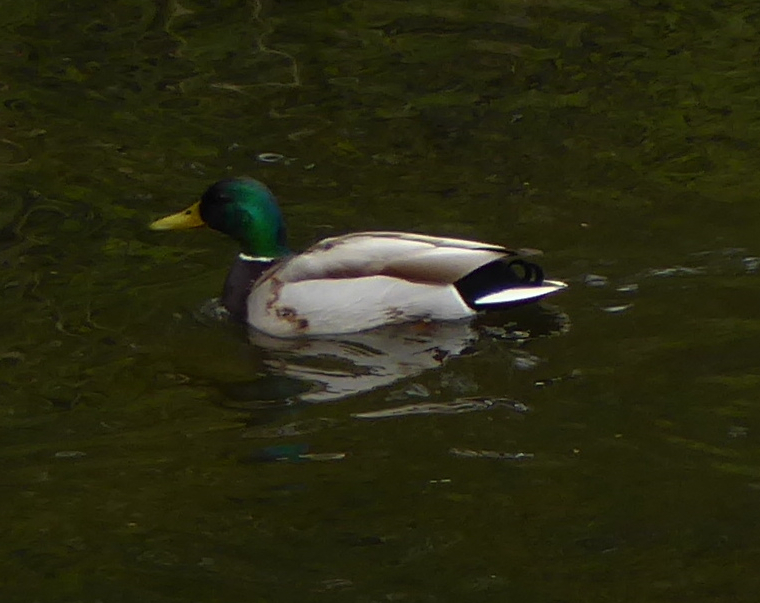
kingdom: Animalia
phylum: Chordata
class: Aves
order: Anseriformes
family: Anatidae
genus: Anas
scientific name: Anas platyrhynchos
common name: Mallard
